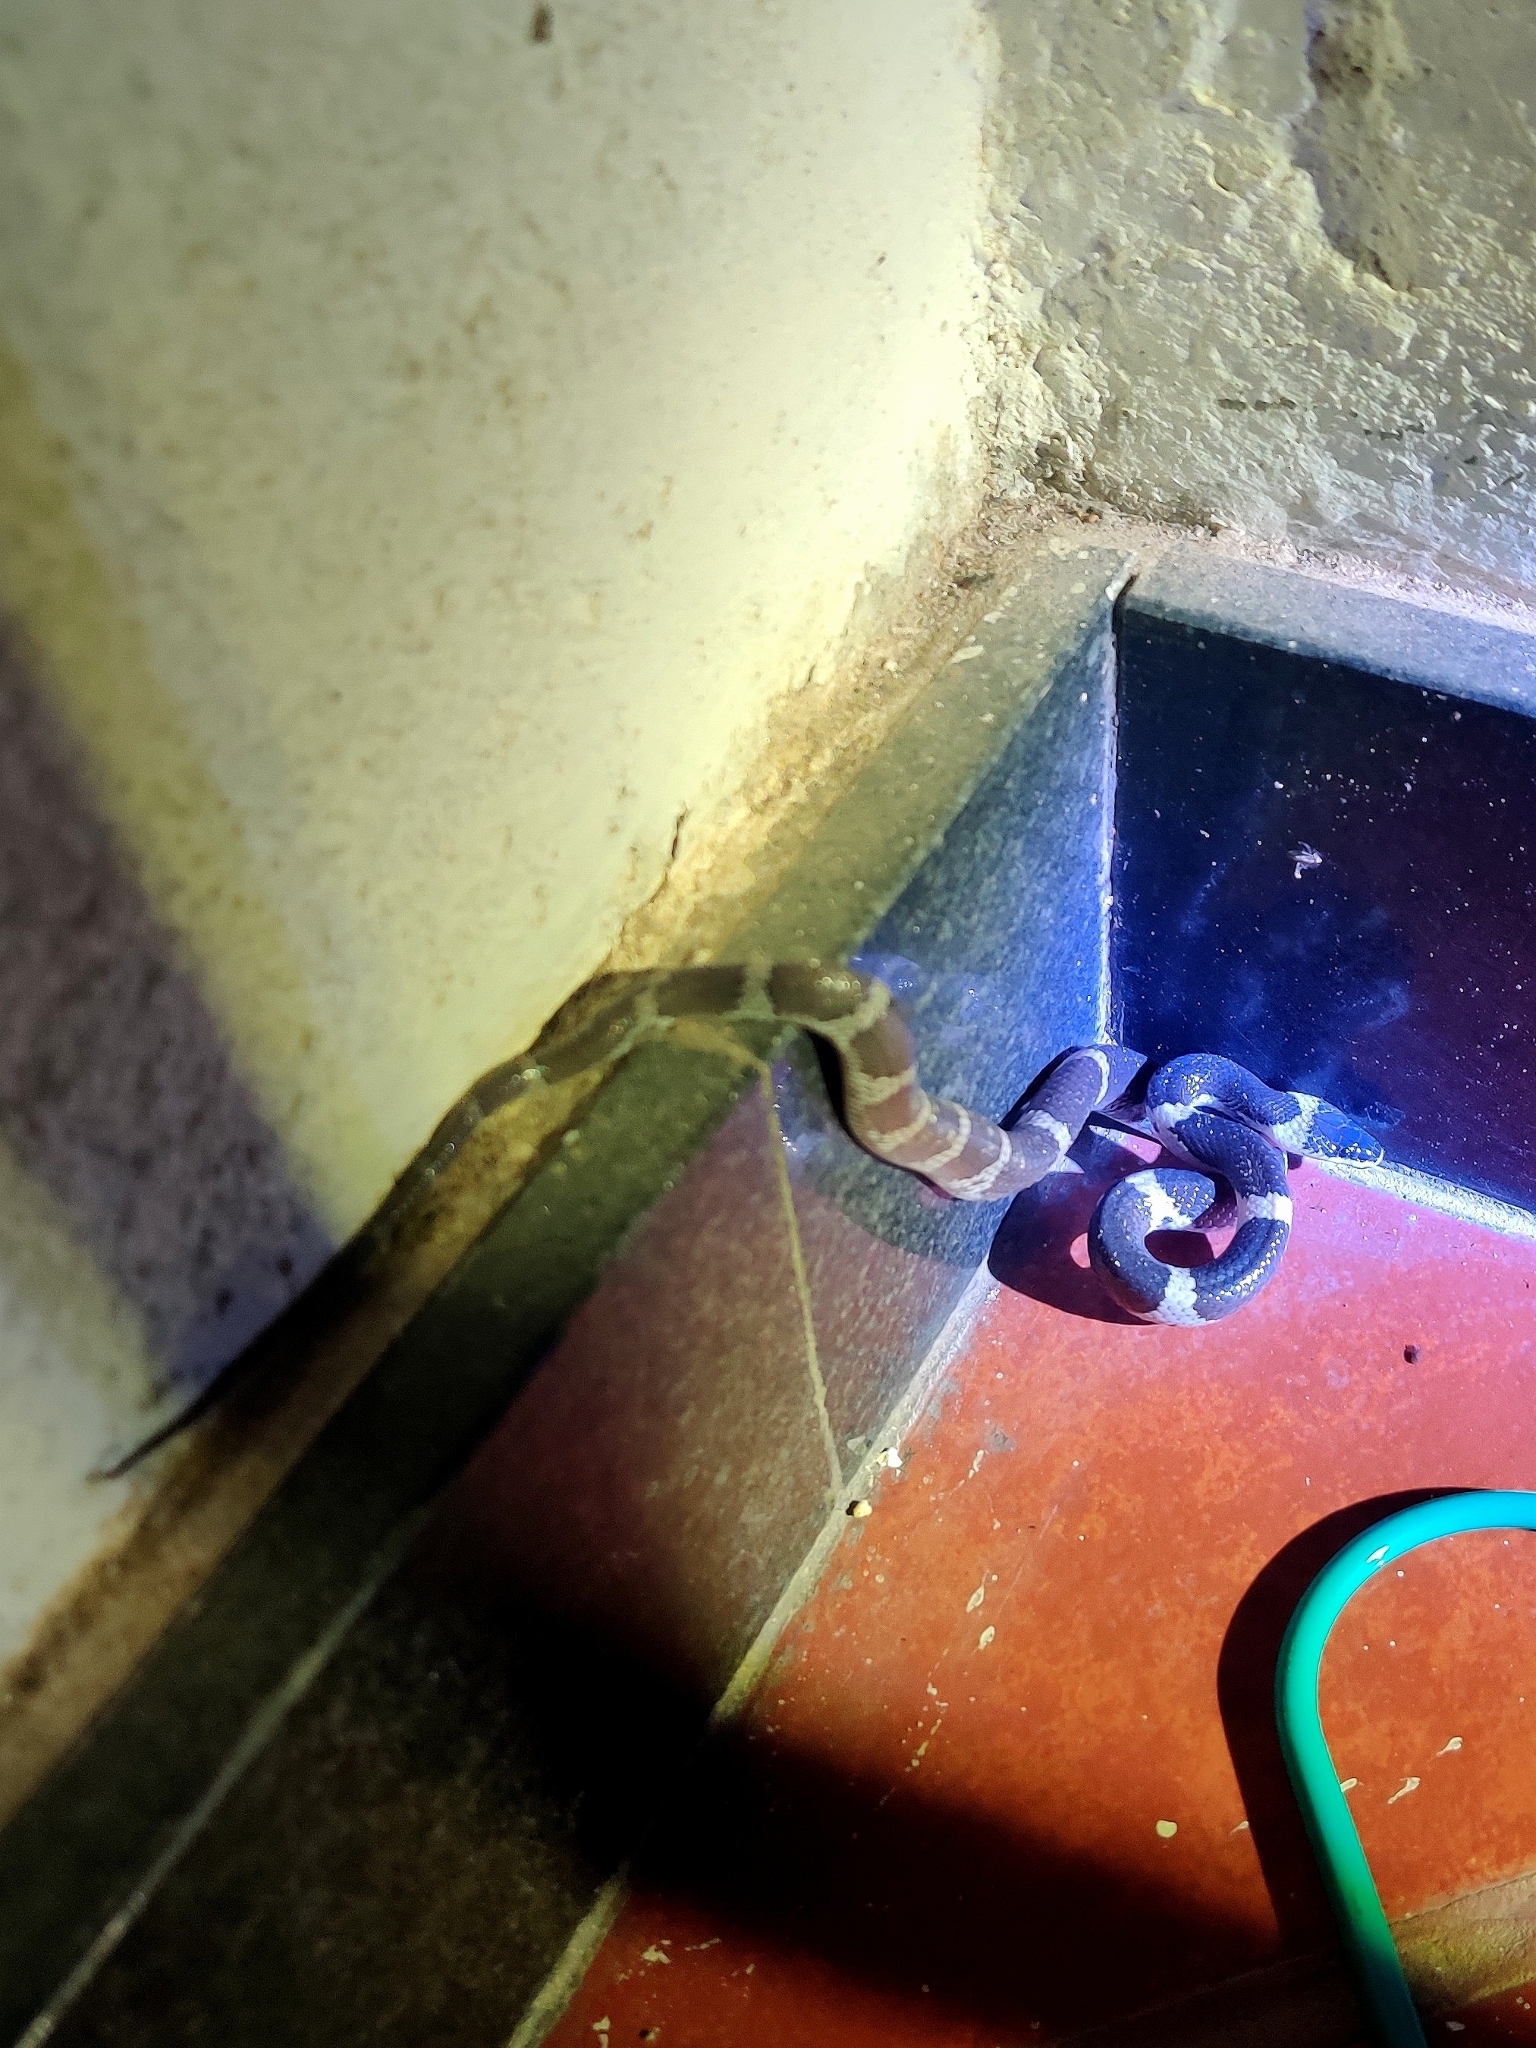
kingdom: Animalia
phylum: Chordata
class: Squamata
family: Colubridae
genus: Lycodon
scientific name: Lycodon aulicus
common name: Common wolf snake
